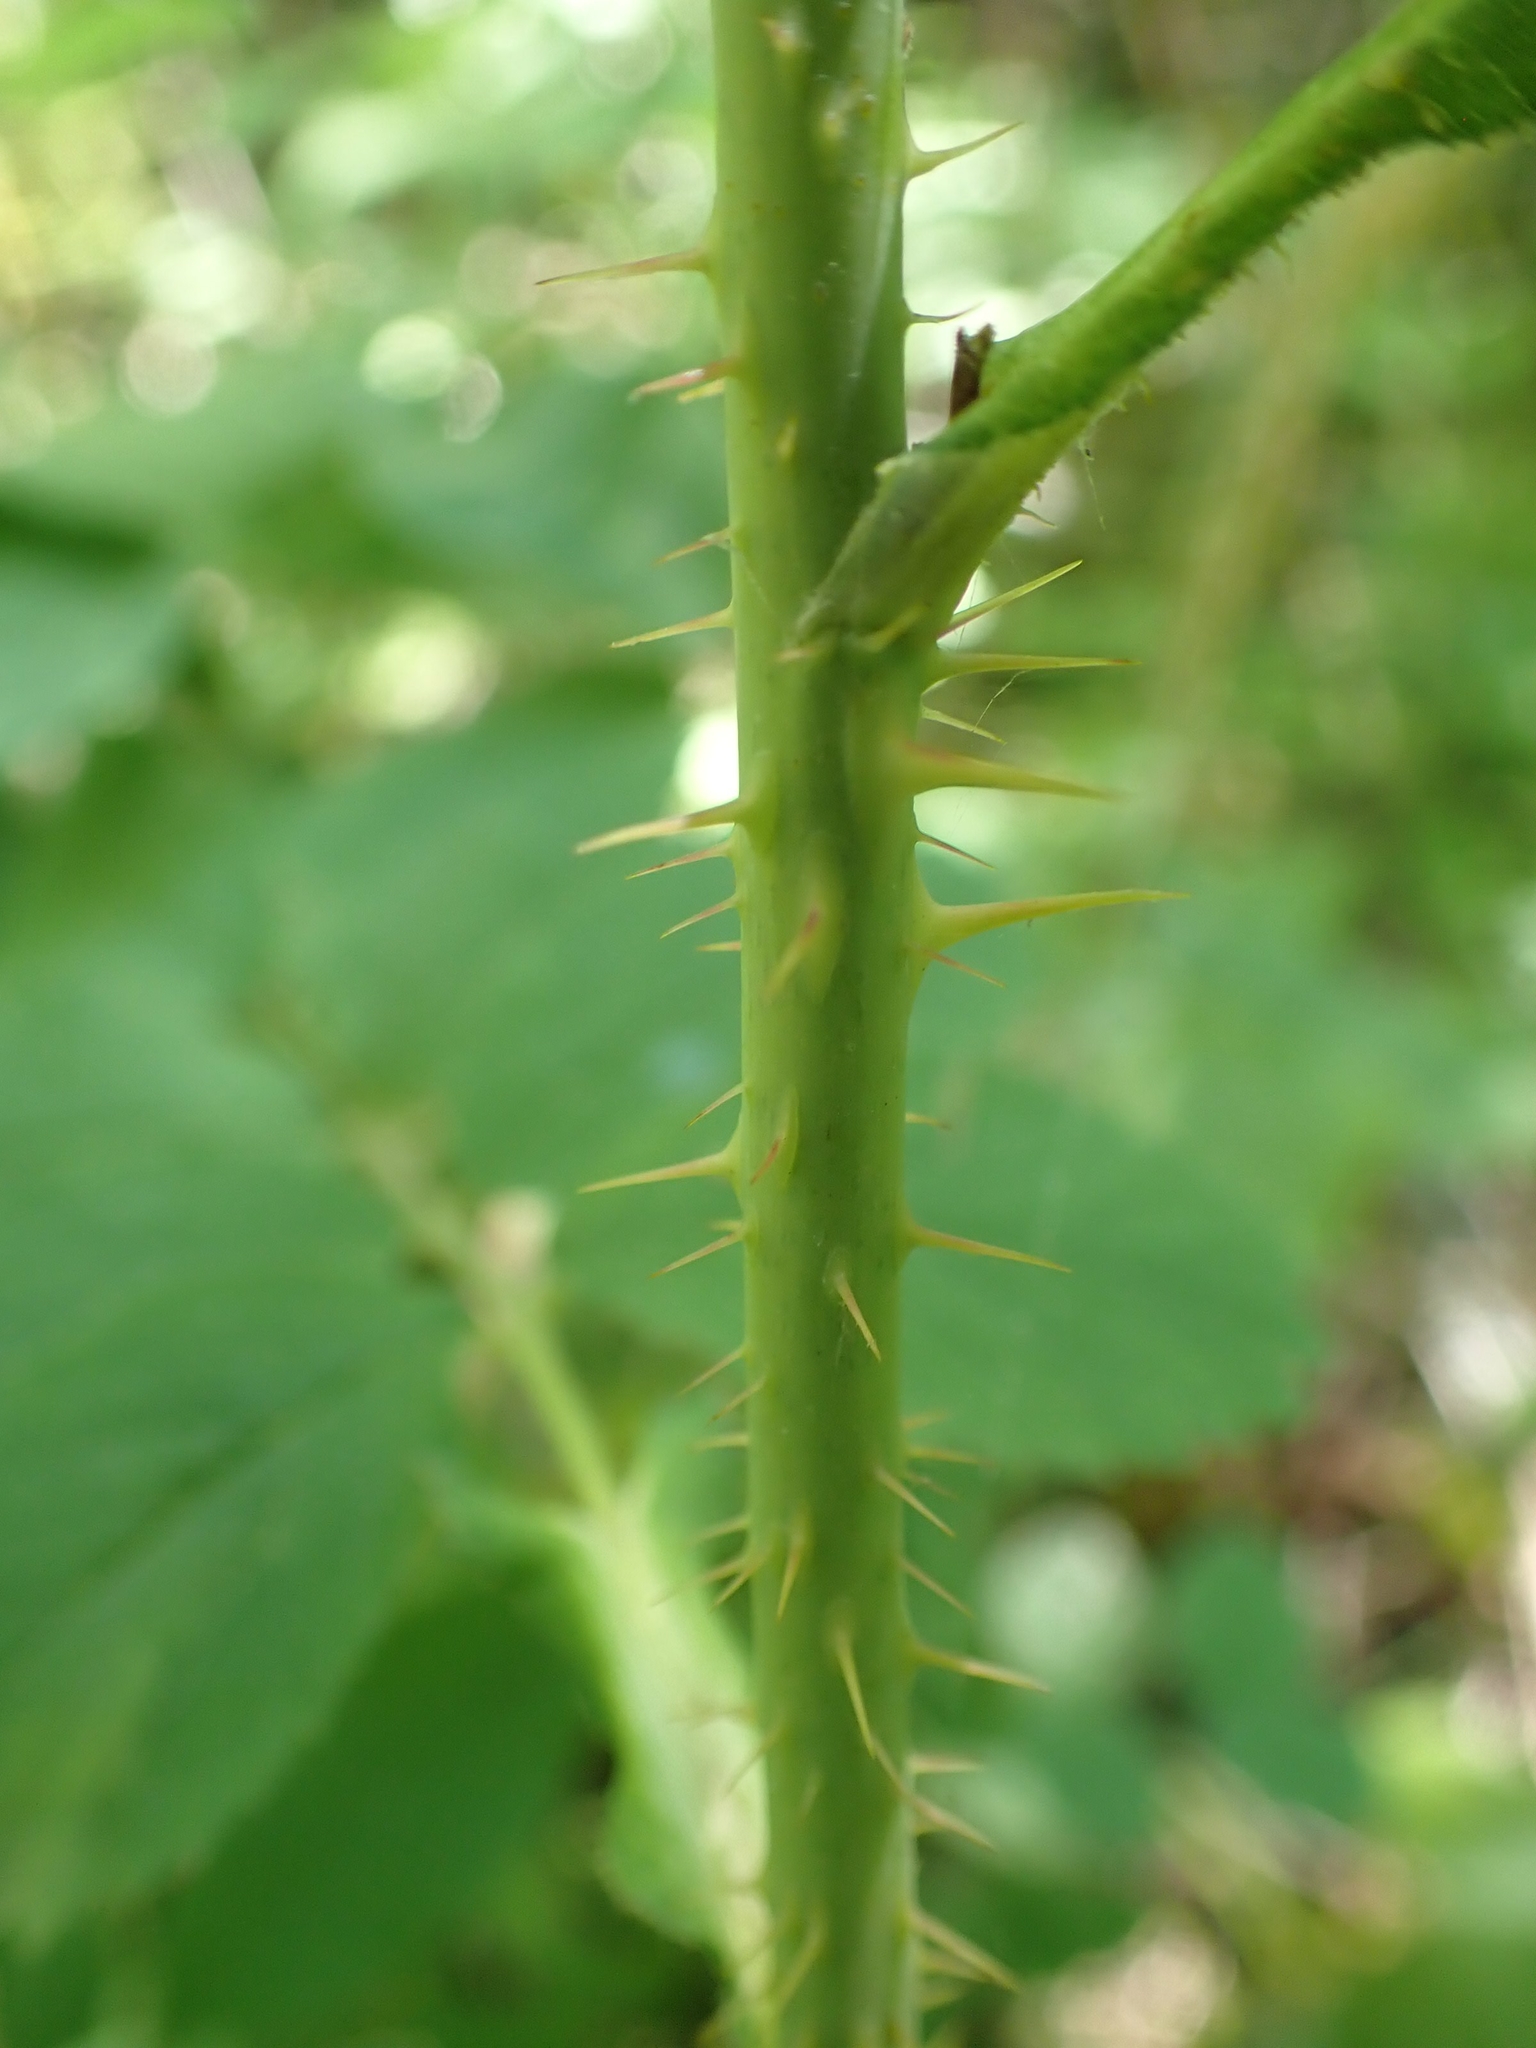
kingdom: Plantae
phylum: Tracheophyta
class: Magnoliopsida
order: Rosales
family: Rosaceae
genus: Rosa
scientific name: Rosa woodsii
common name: Woods's rose
